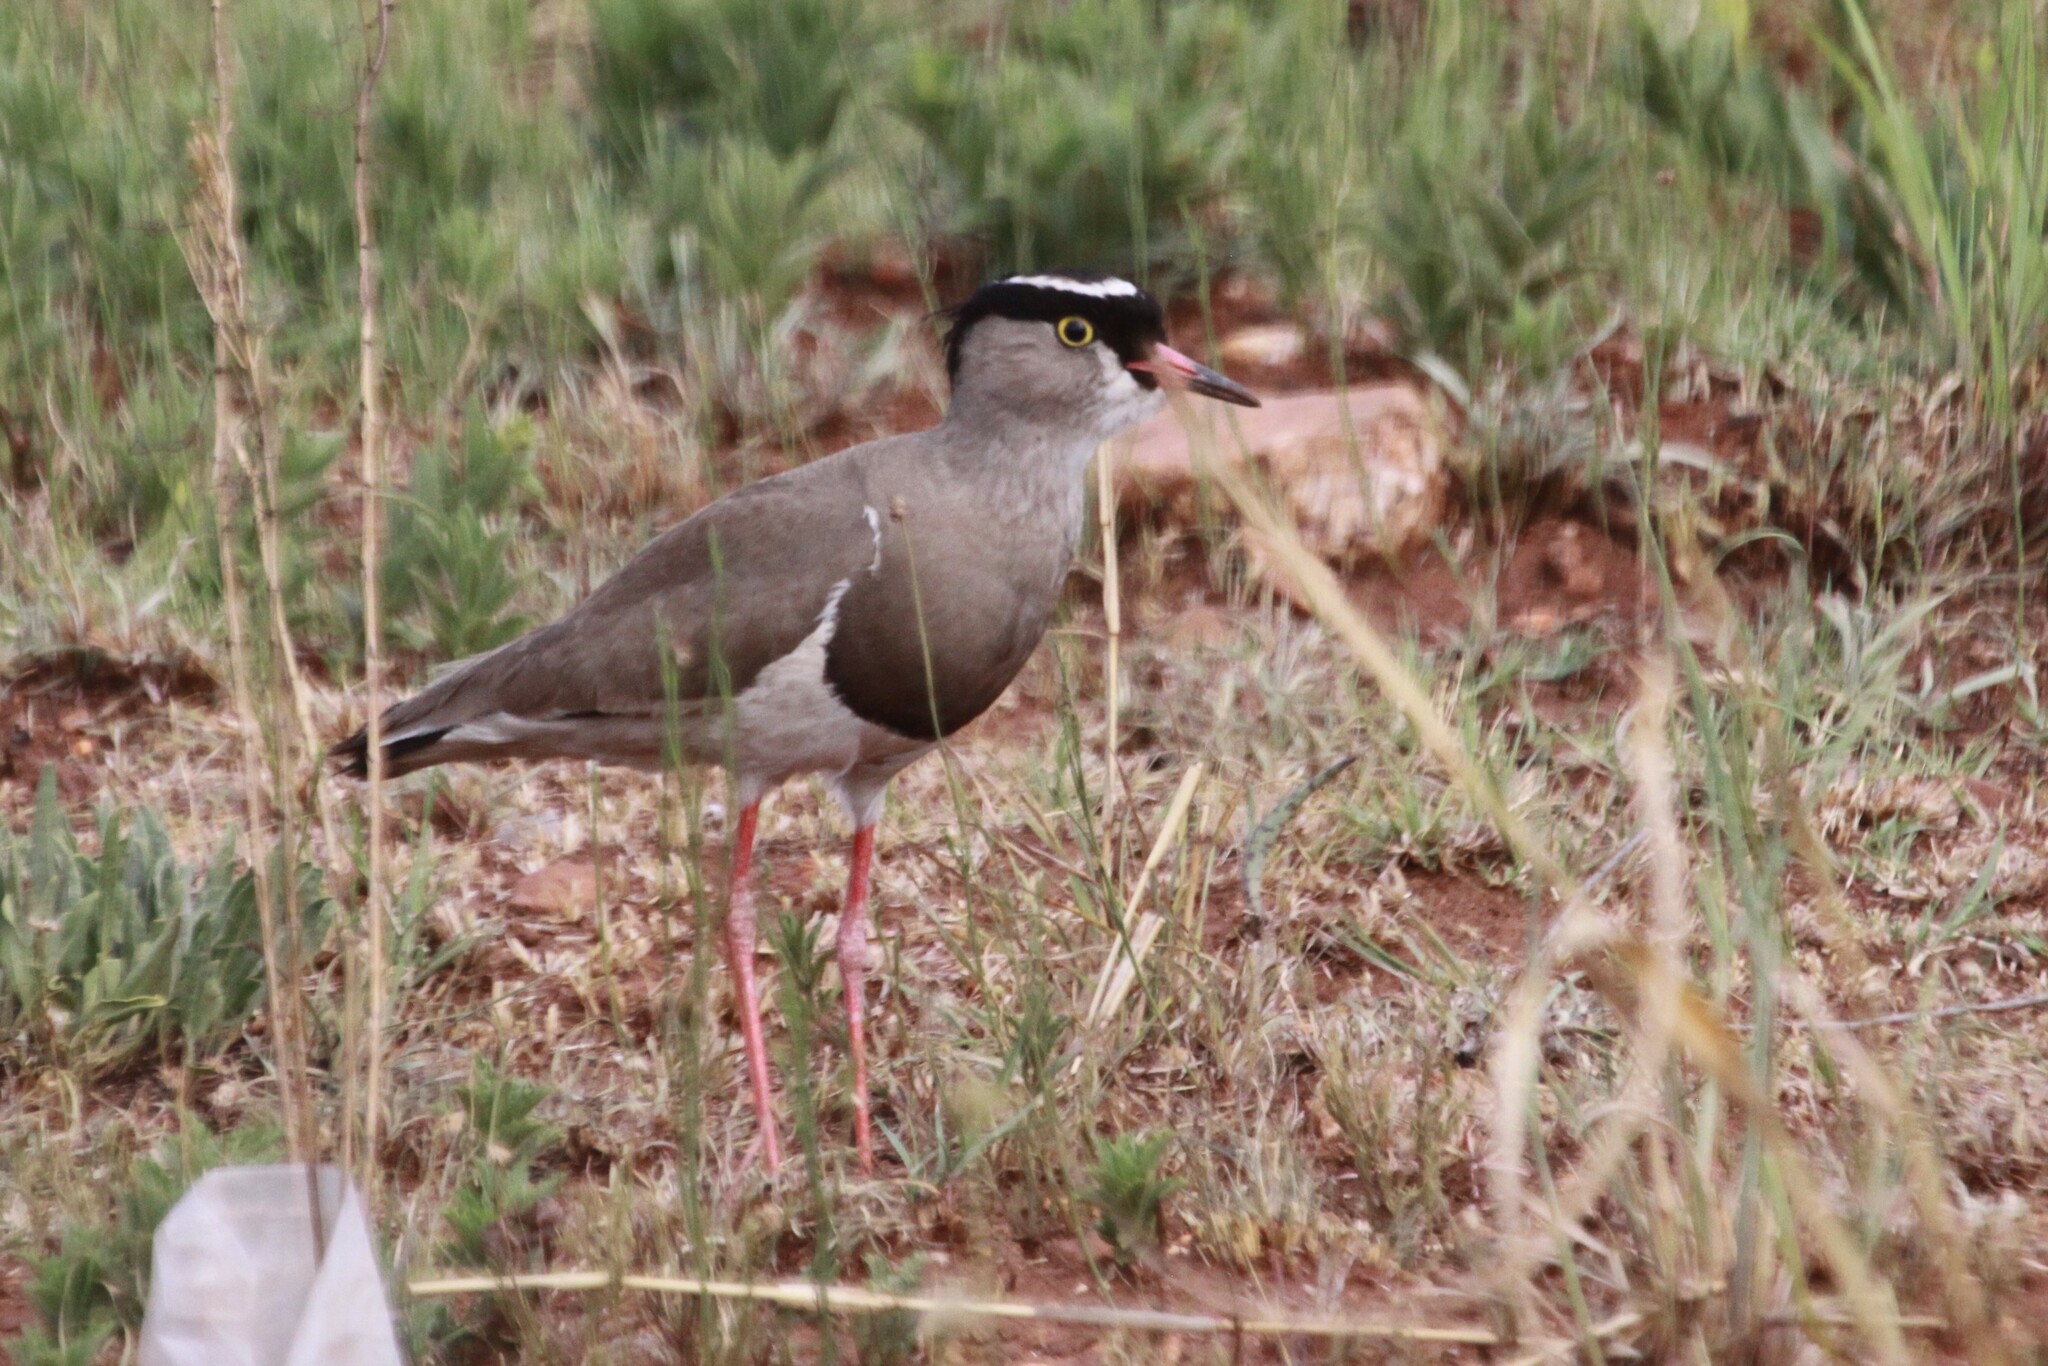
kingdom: Animalia
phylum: Chordata
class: Aves
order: Charadriiformes
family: Charadriidae
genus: Vanellus
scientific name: Vanellus coronatus
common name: Crowned lapwing
